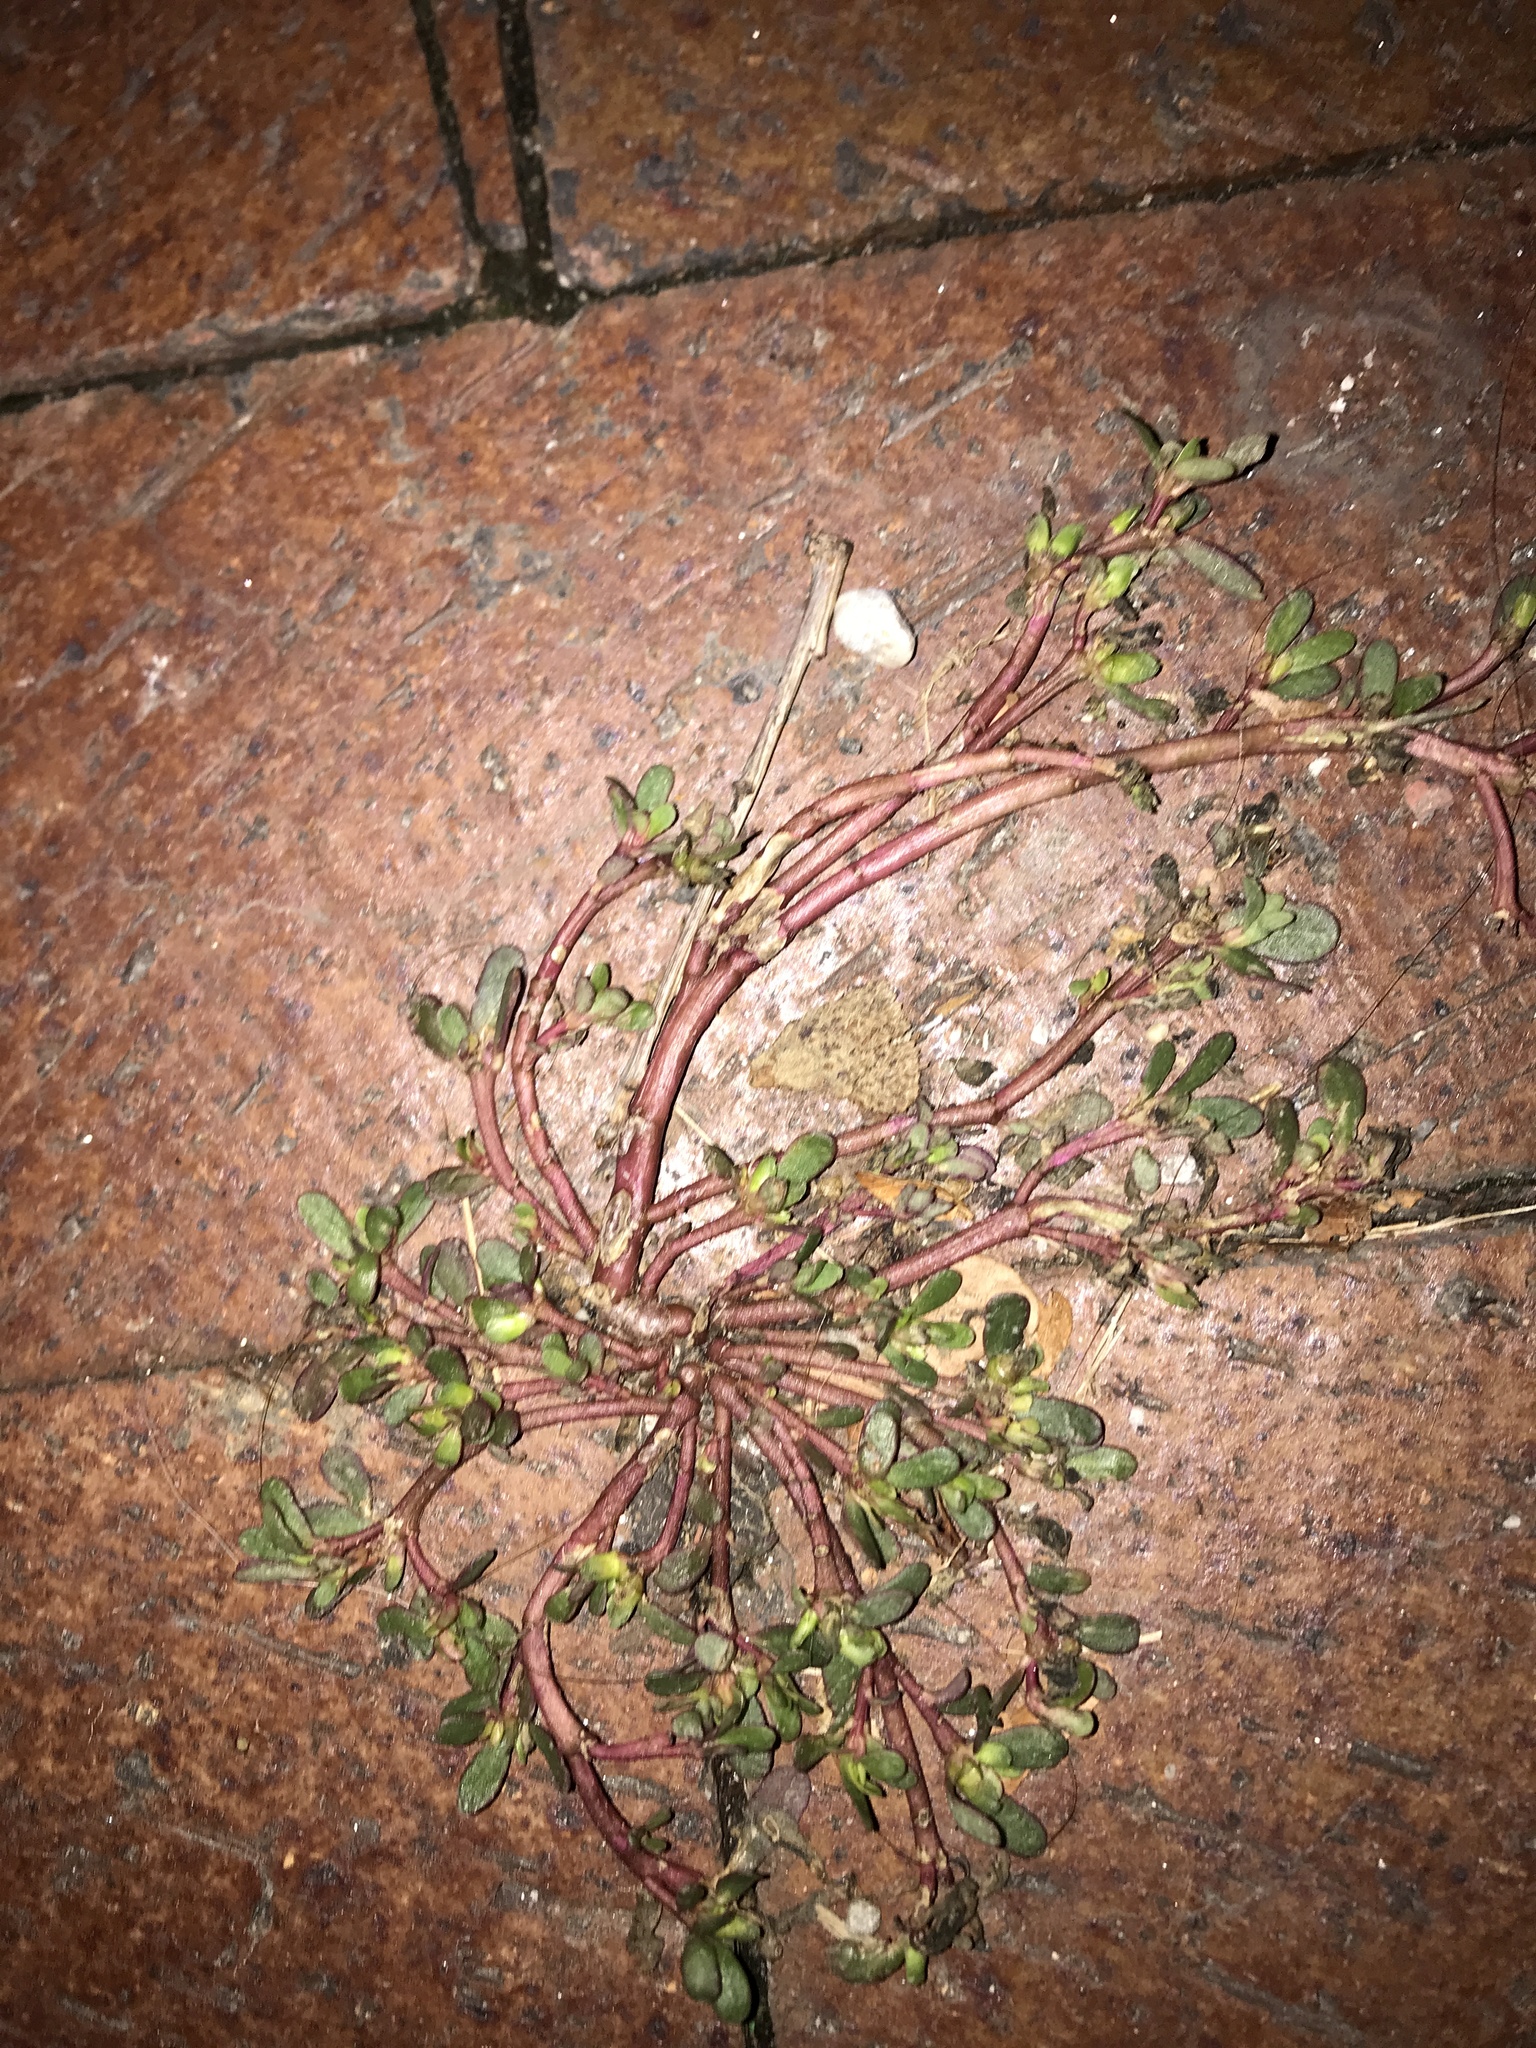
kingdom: Plantae
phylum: Tracheophyta
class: Magnoliopsida
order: Caryophyllales
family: Portulacaceae
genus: Portulaca
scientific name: Portulaca oleracea
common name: Common purslane
